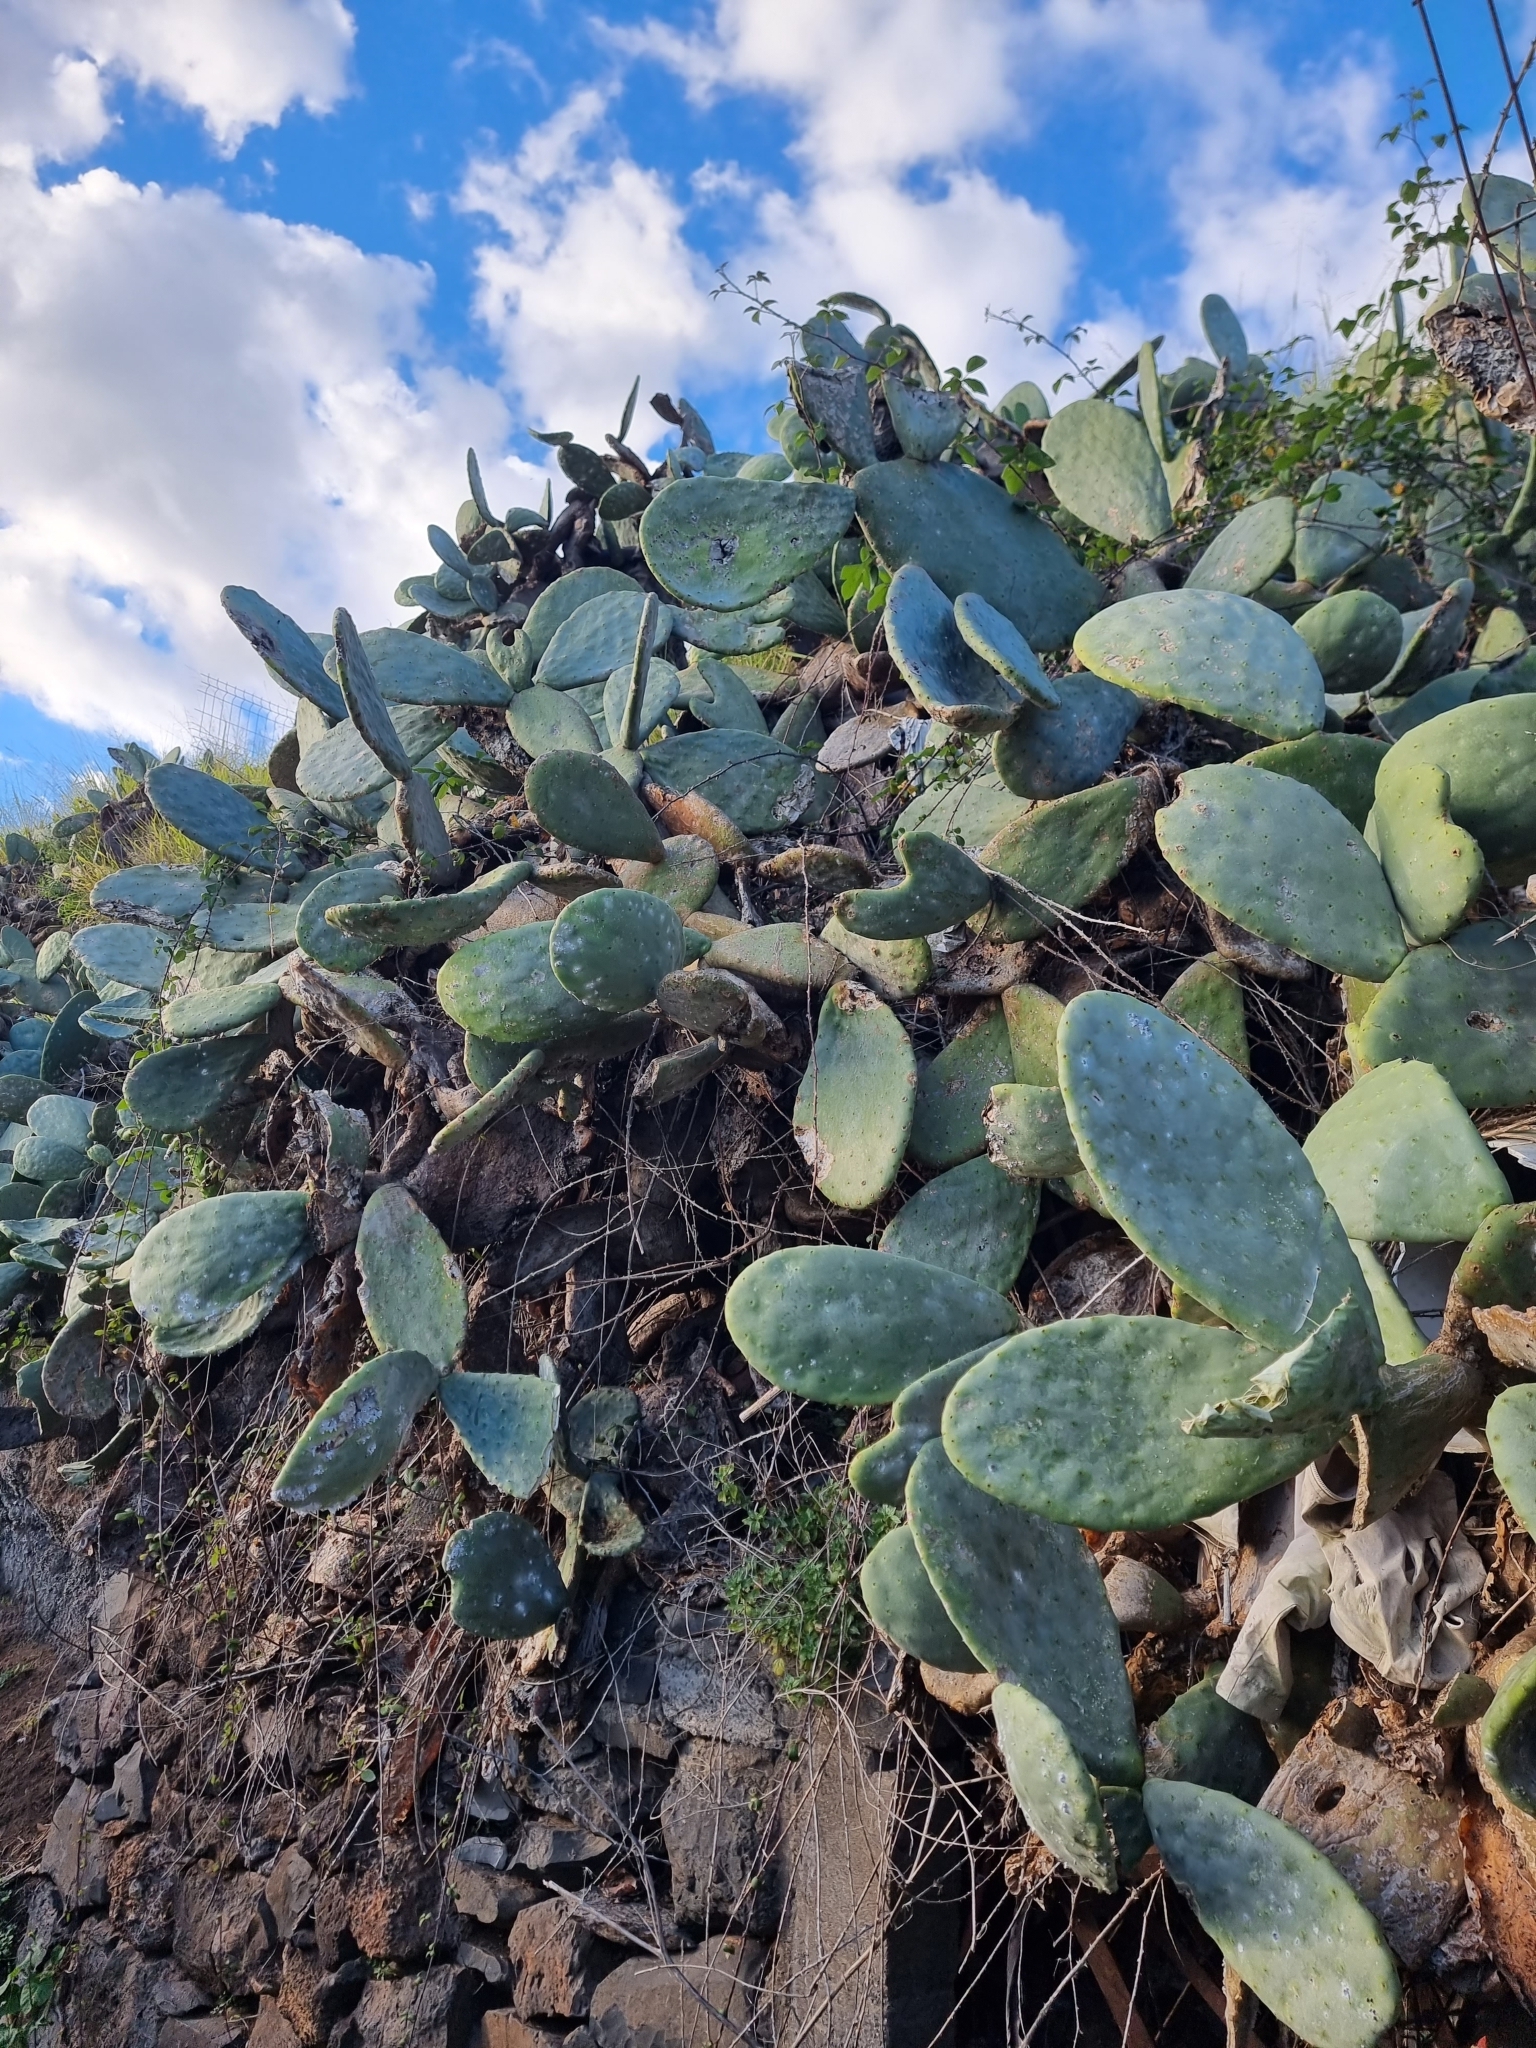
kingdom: Plantae
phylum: Tracheophyta
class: Magnoliopsida
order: Caryophyllales
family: Cactaceae
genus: Opuntia
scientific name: Opuntia ficus-indica
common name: Barbary fig
